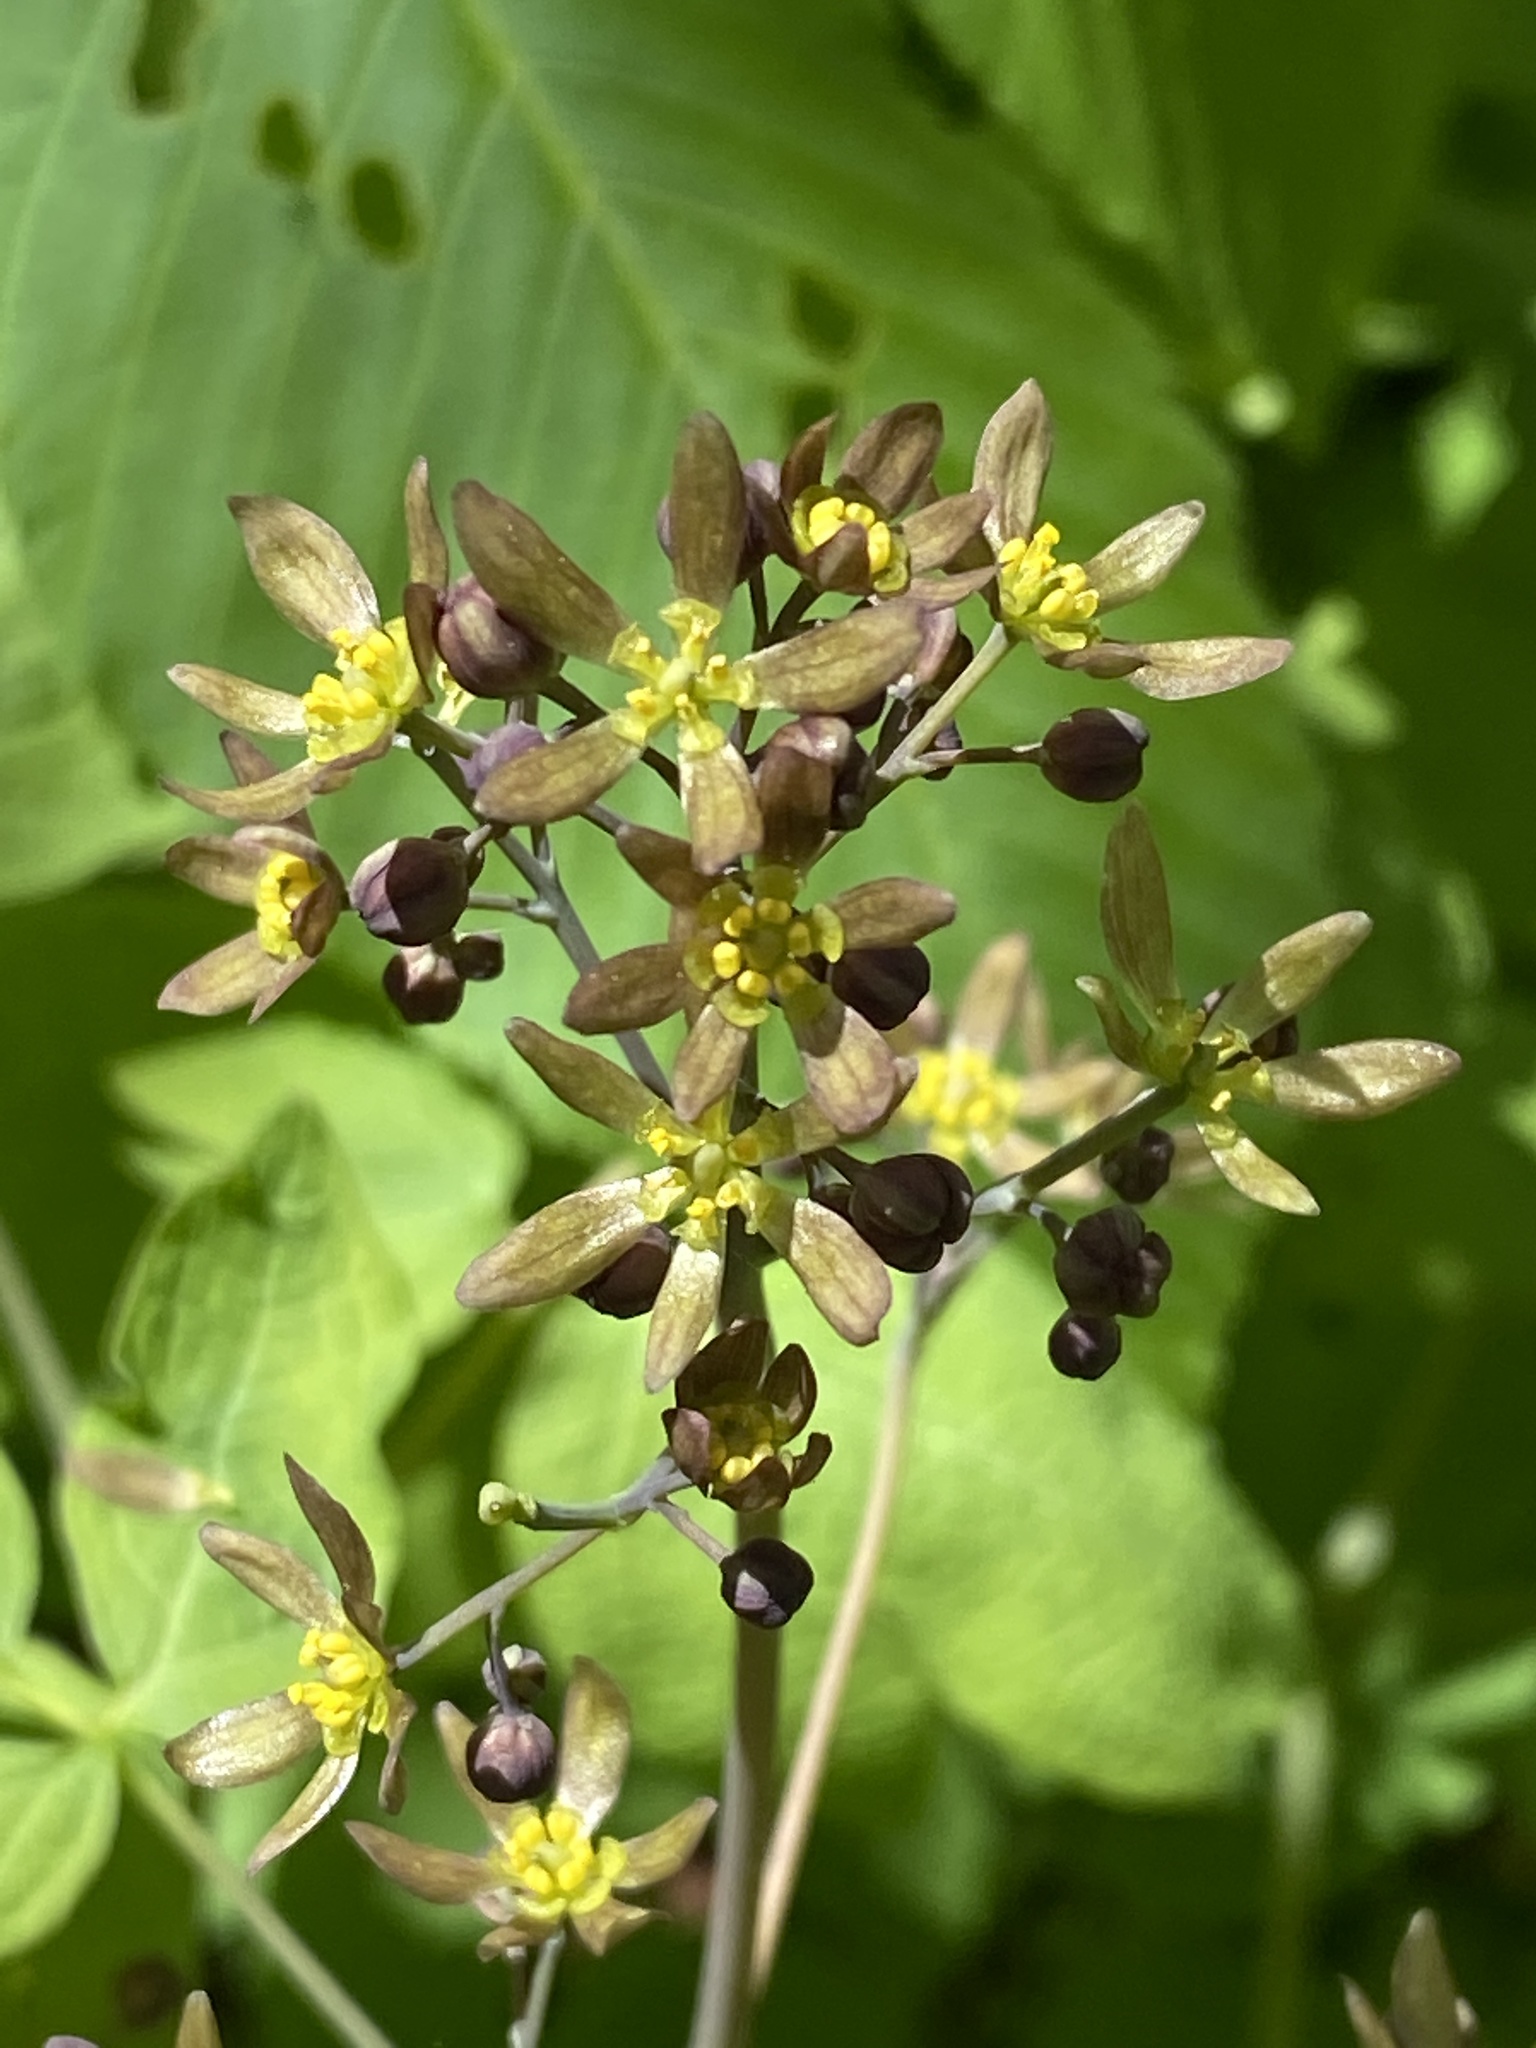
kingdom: Plantae
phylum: Tracheophyta
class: Magnoliopsida
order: Ranunculales
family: Berberidaceae
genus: Caulophyllum
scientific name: Caulophyllum thalictroides
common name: Blue cohosh
